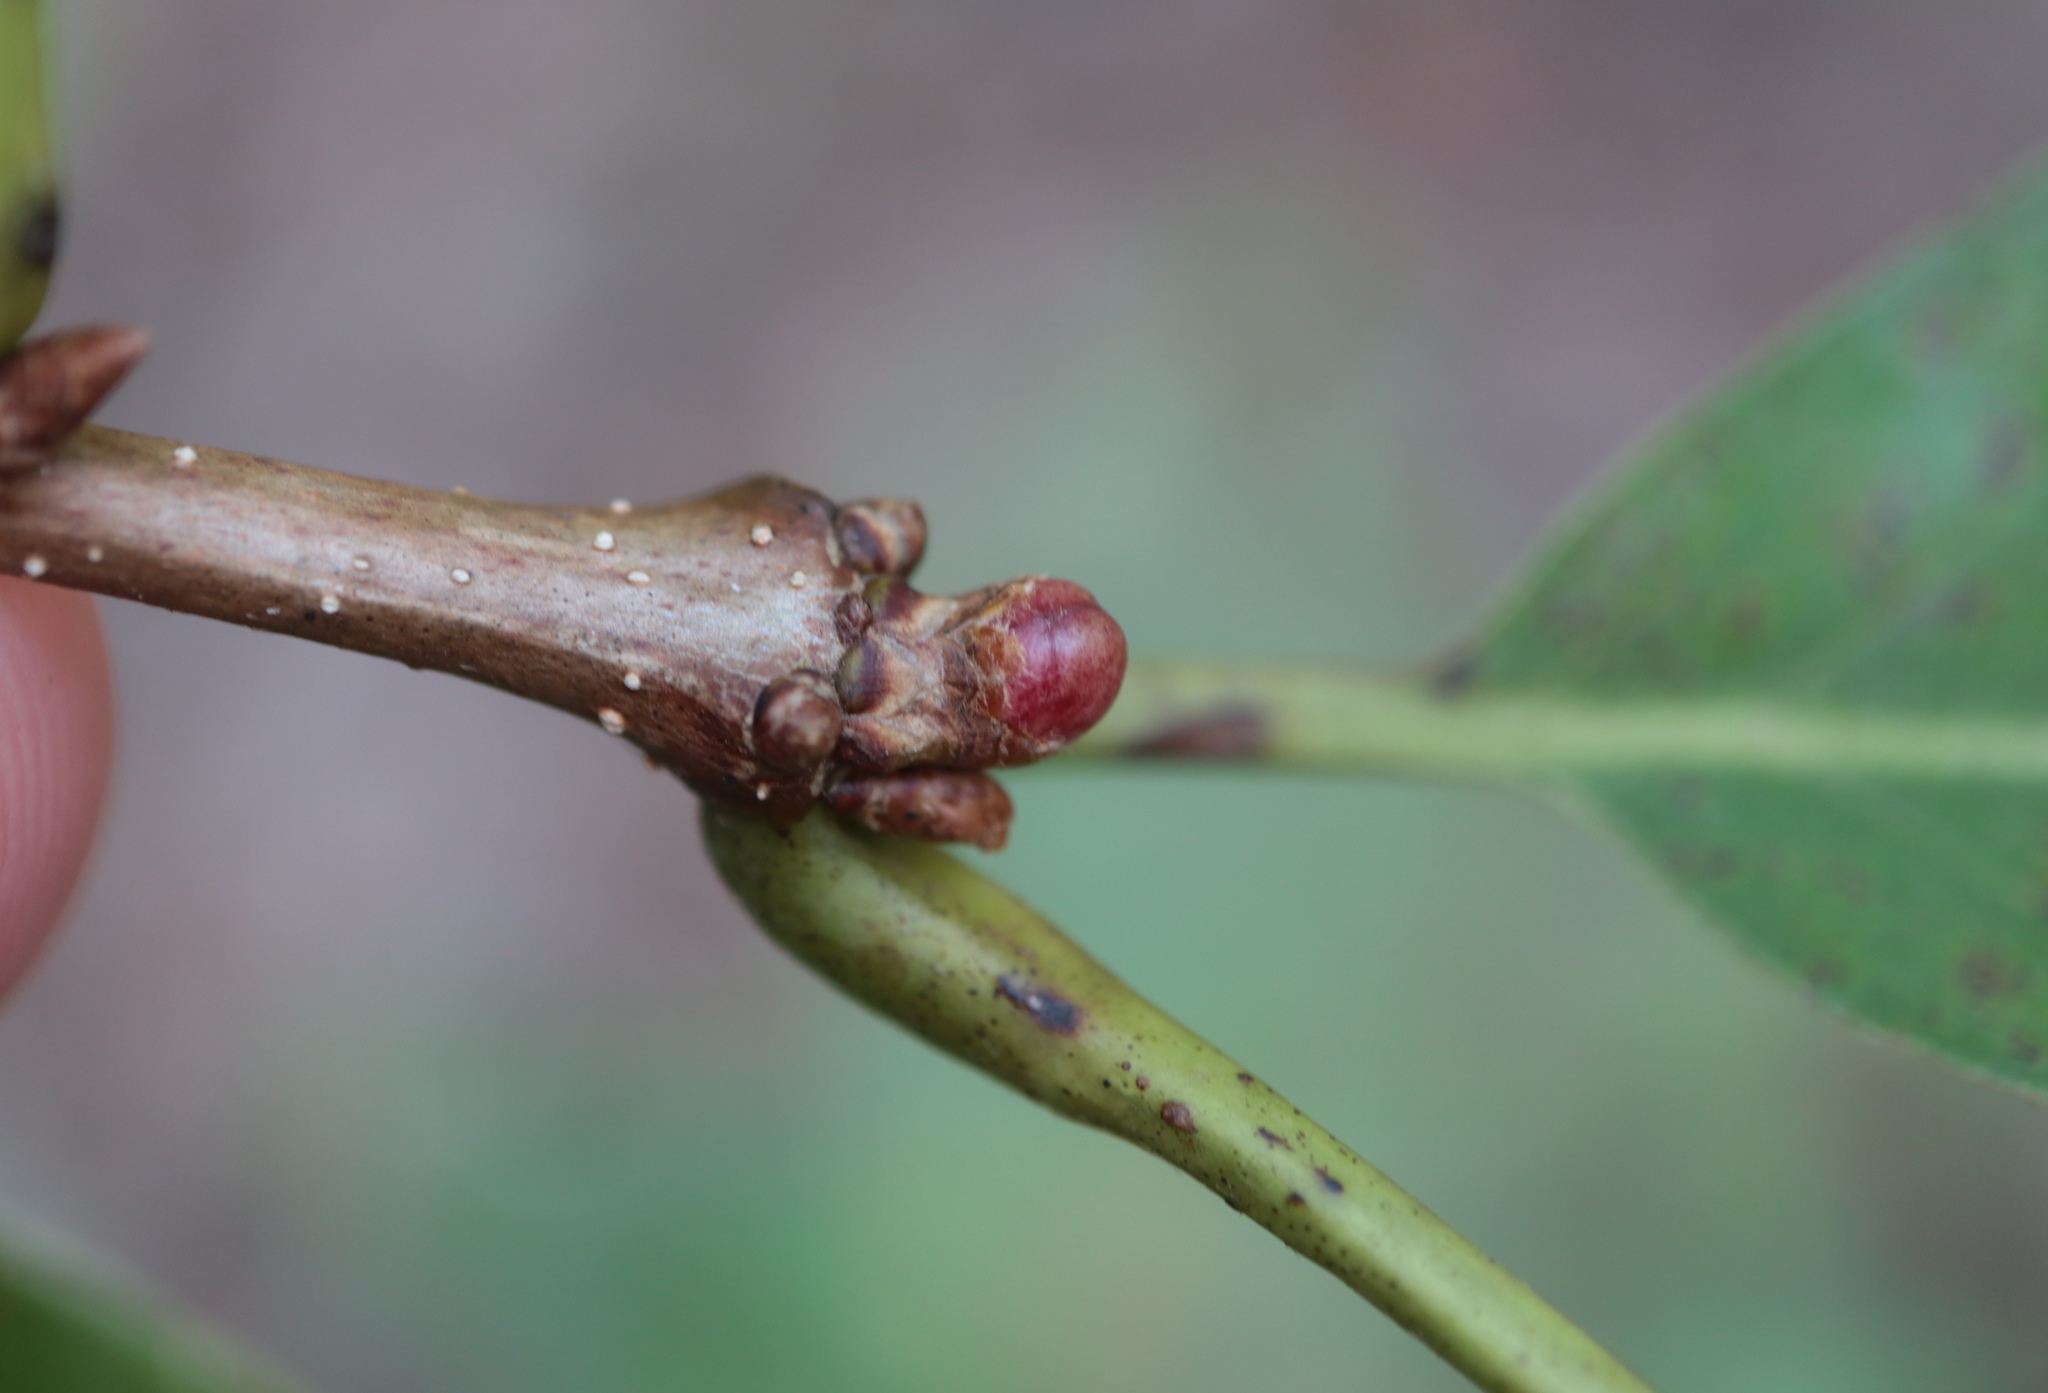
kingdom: Animalia
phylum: Arthropoda
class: Insecta
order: Hymenoptera
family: Cynipidae
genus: Andricus
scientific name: Andricus
